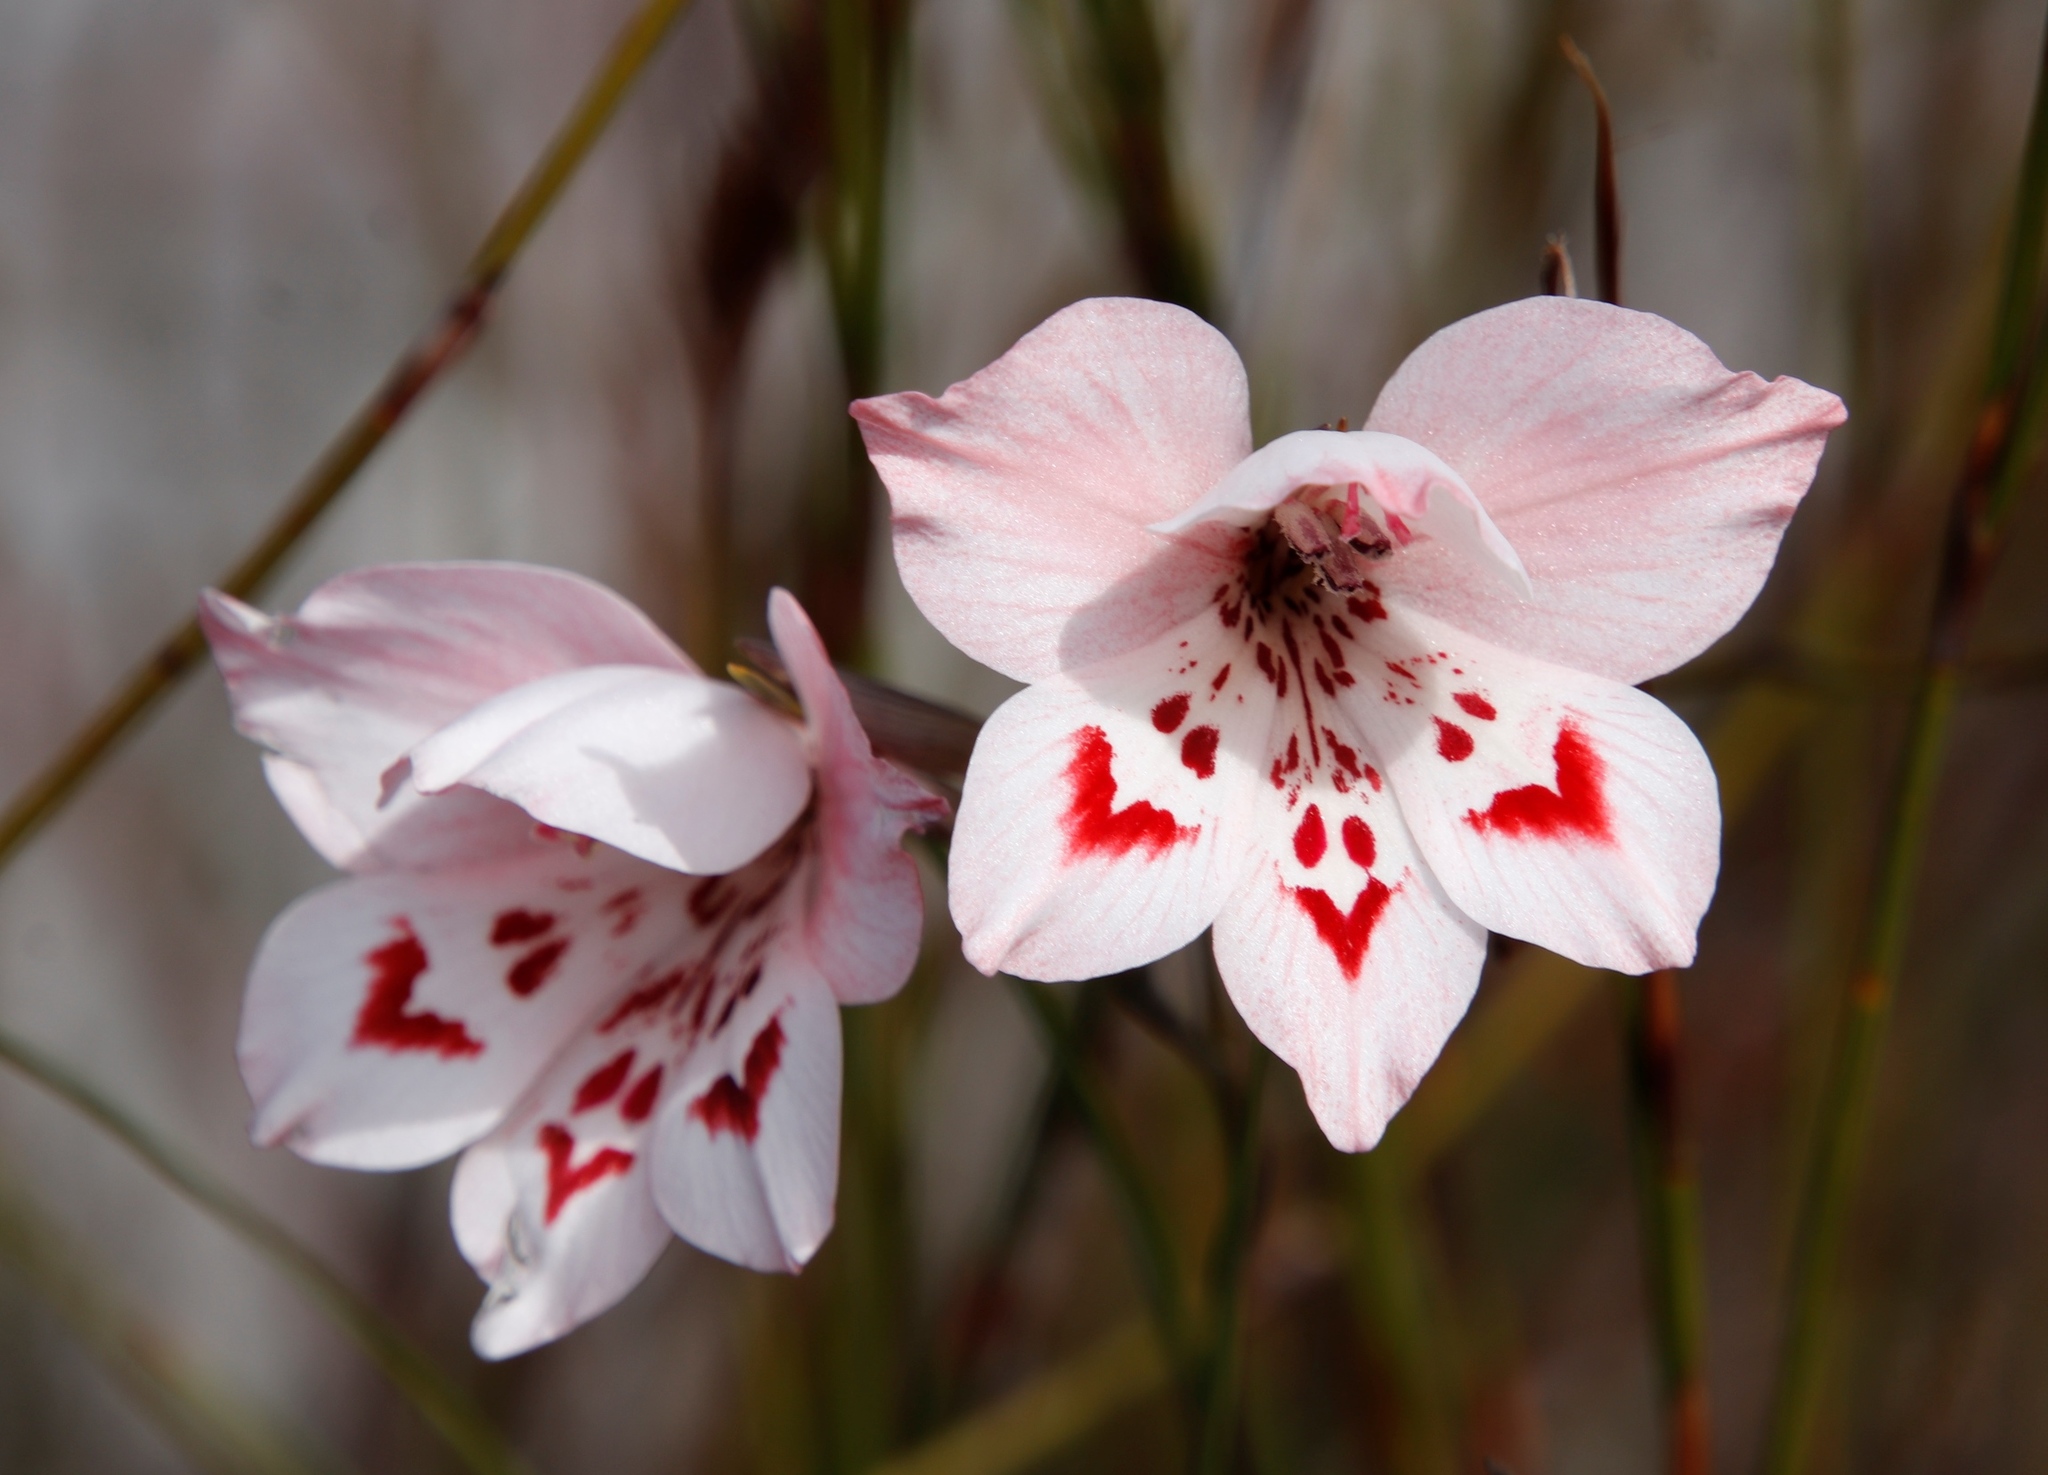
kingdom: Plantae
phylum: Tracheophyta
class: Liliopsida
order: Asparagales
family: Iridaceae
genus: Gladiolus
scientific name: Gladiolus debilis
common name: Painted-lady
